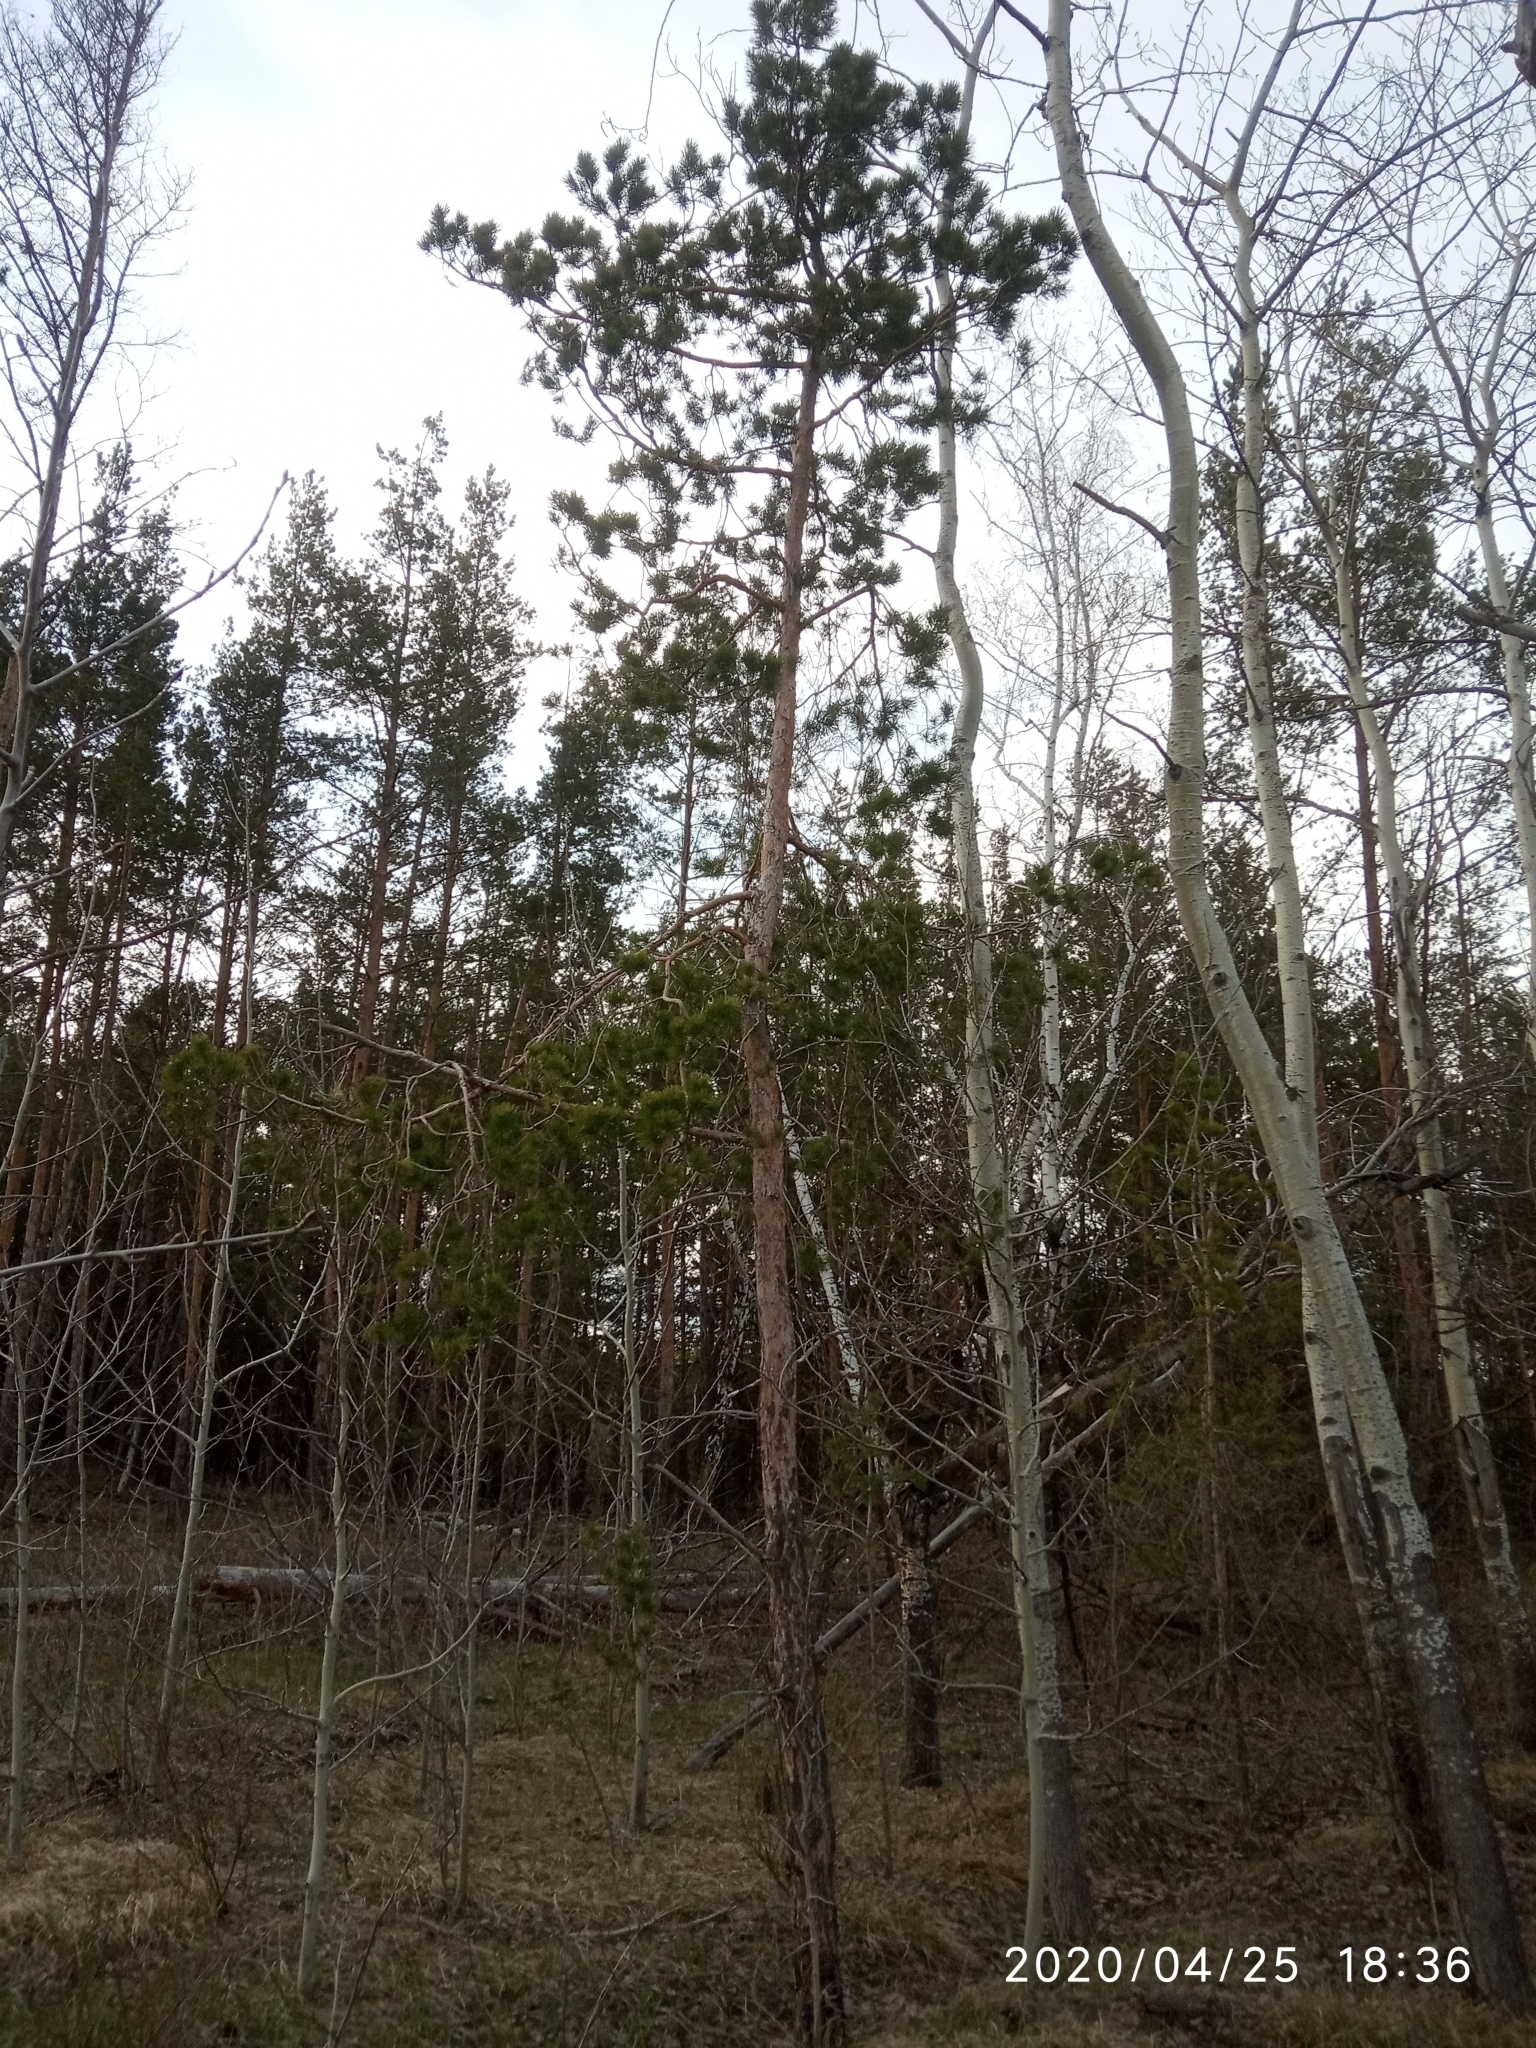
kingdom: Plantae
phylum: Tracheophyta
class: Pinopsida
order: Pinales
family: Pinaceae
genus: Pinus
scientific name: Pinus sylvestris
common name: Scots pine
